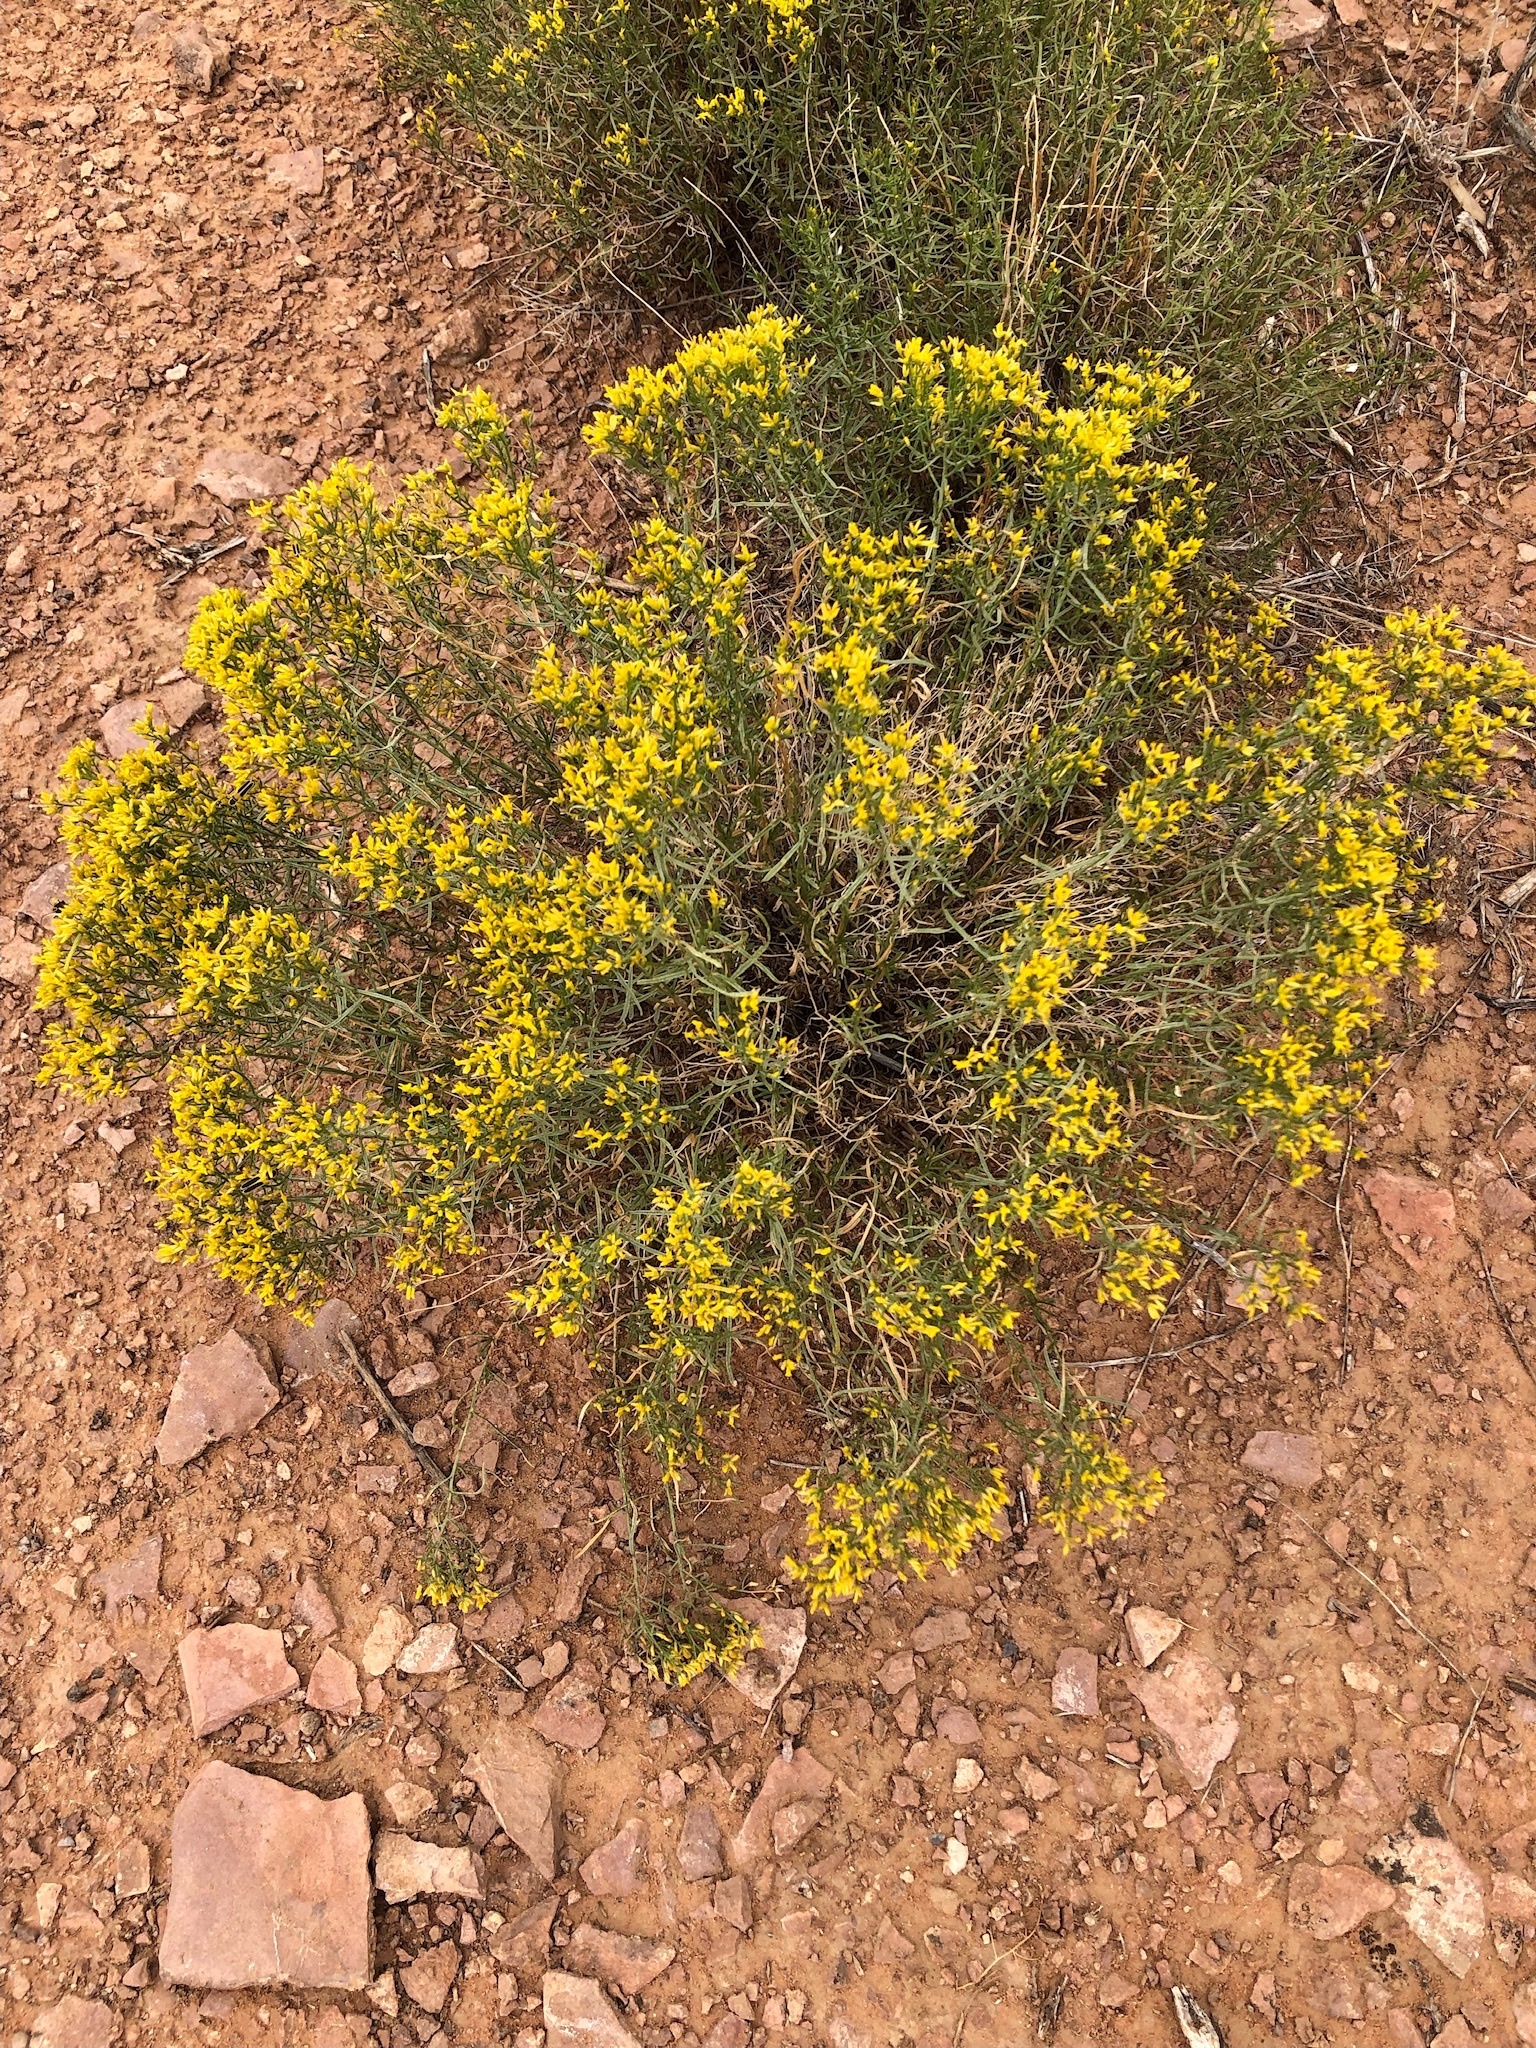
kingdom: Plantae
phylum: Tracheophyta
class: Magnoliopsida
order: Asterales
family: Asteraceae
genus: Gutierrezia
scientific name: Gutierrezia sarothrae
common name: Broom snakeweed
